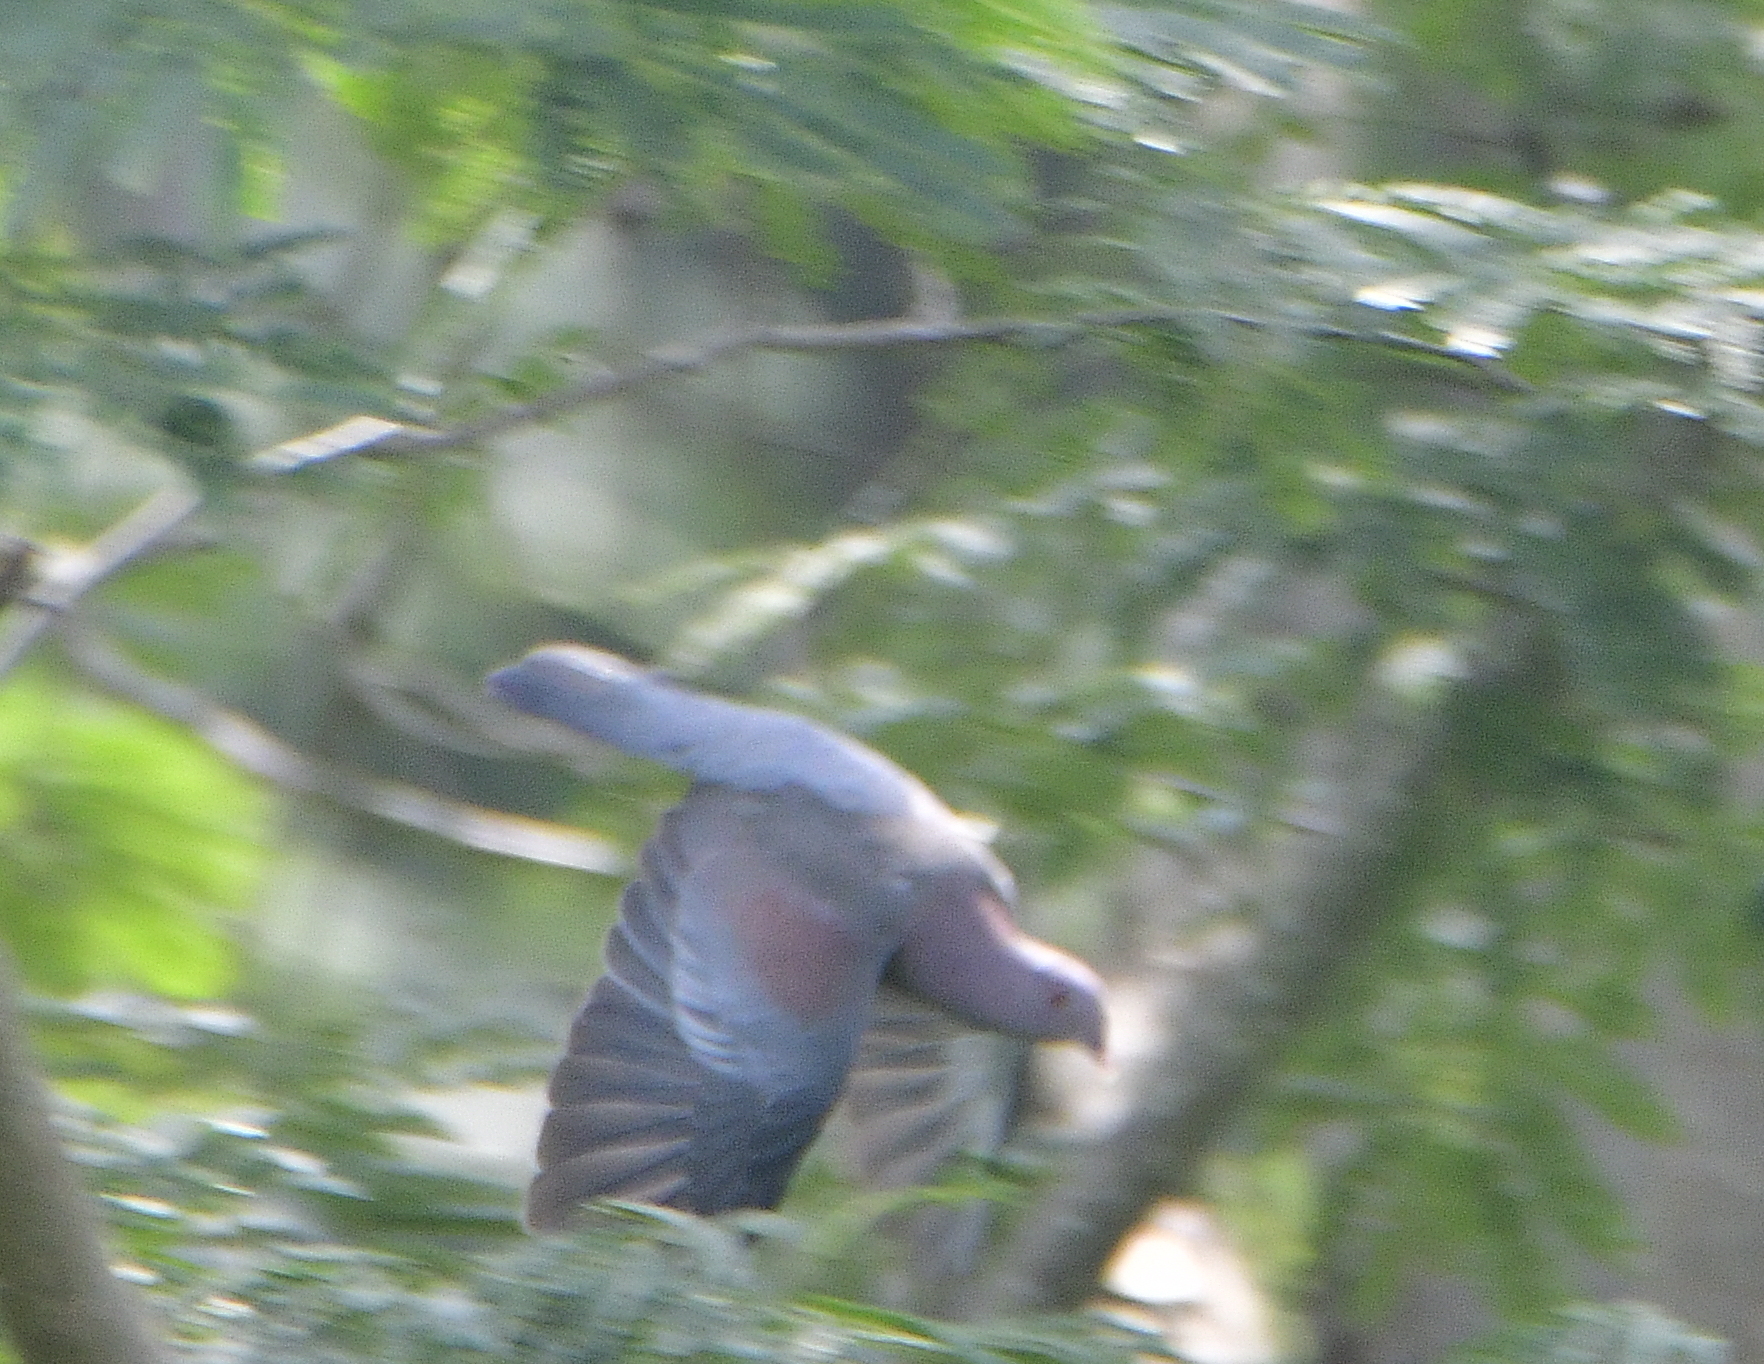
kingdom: Animalia
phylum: Chordata
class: Aves
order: Columbiformes
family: Columbidae
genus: Patagioenas
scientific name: Patagioenas flavirostris
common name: Red-billed pigeon
